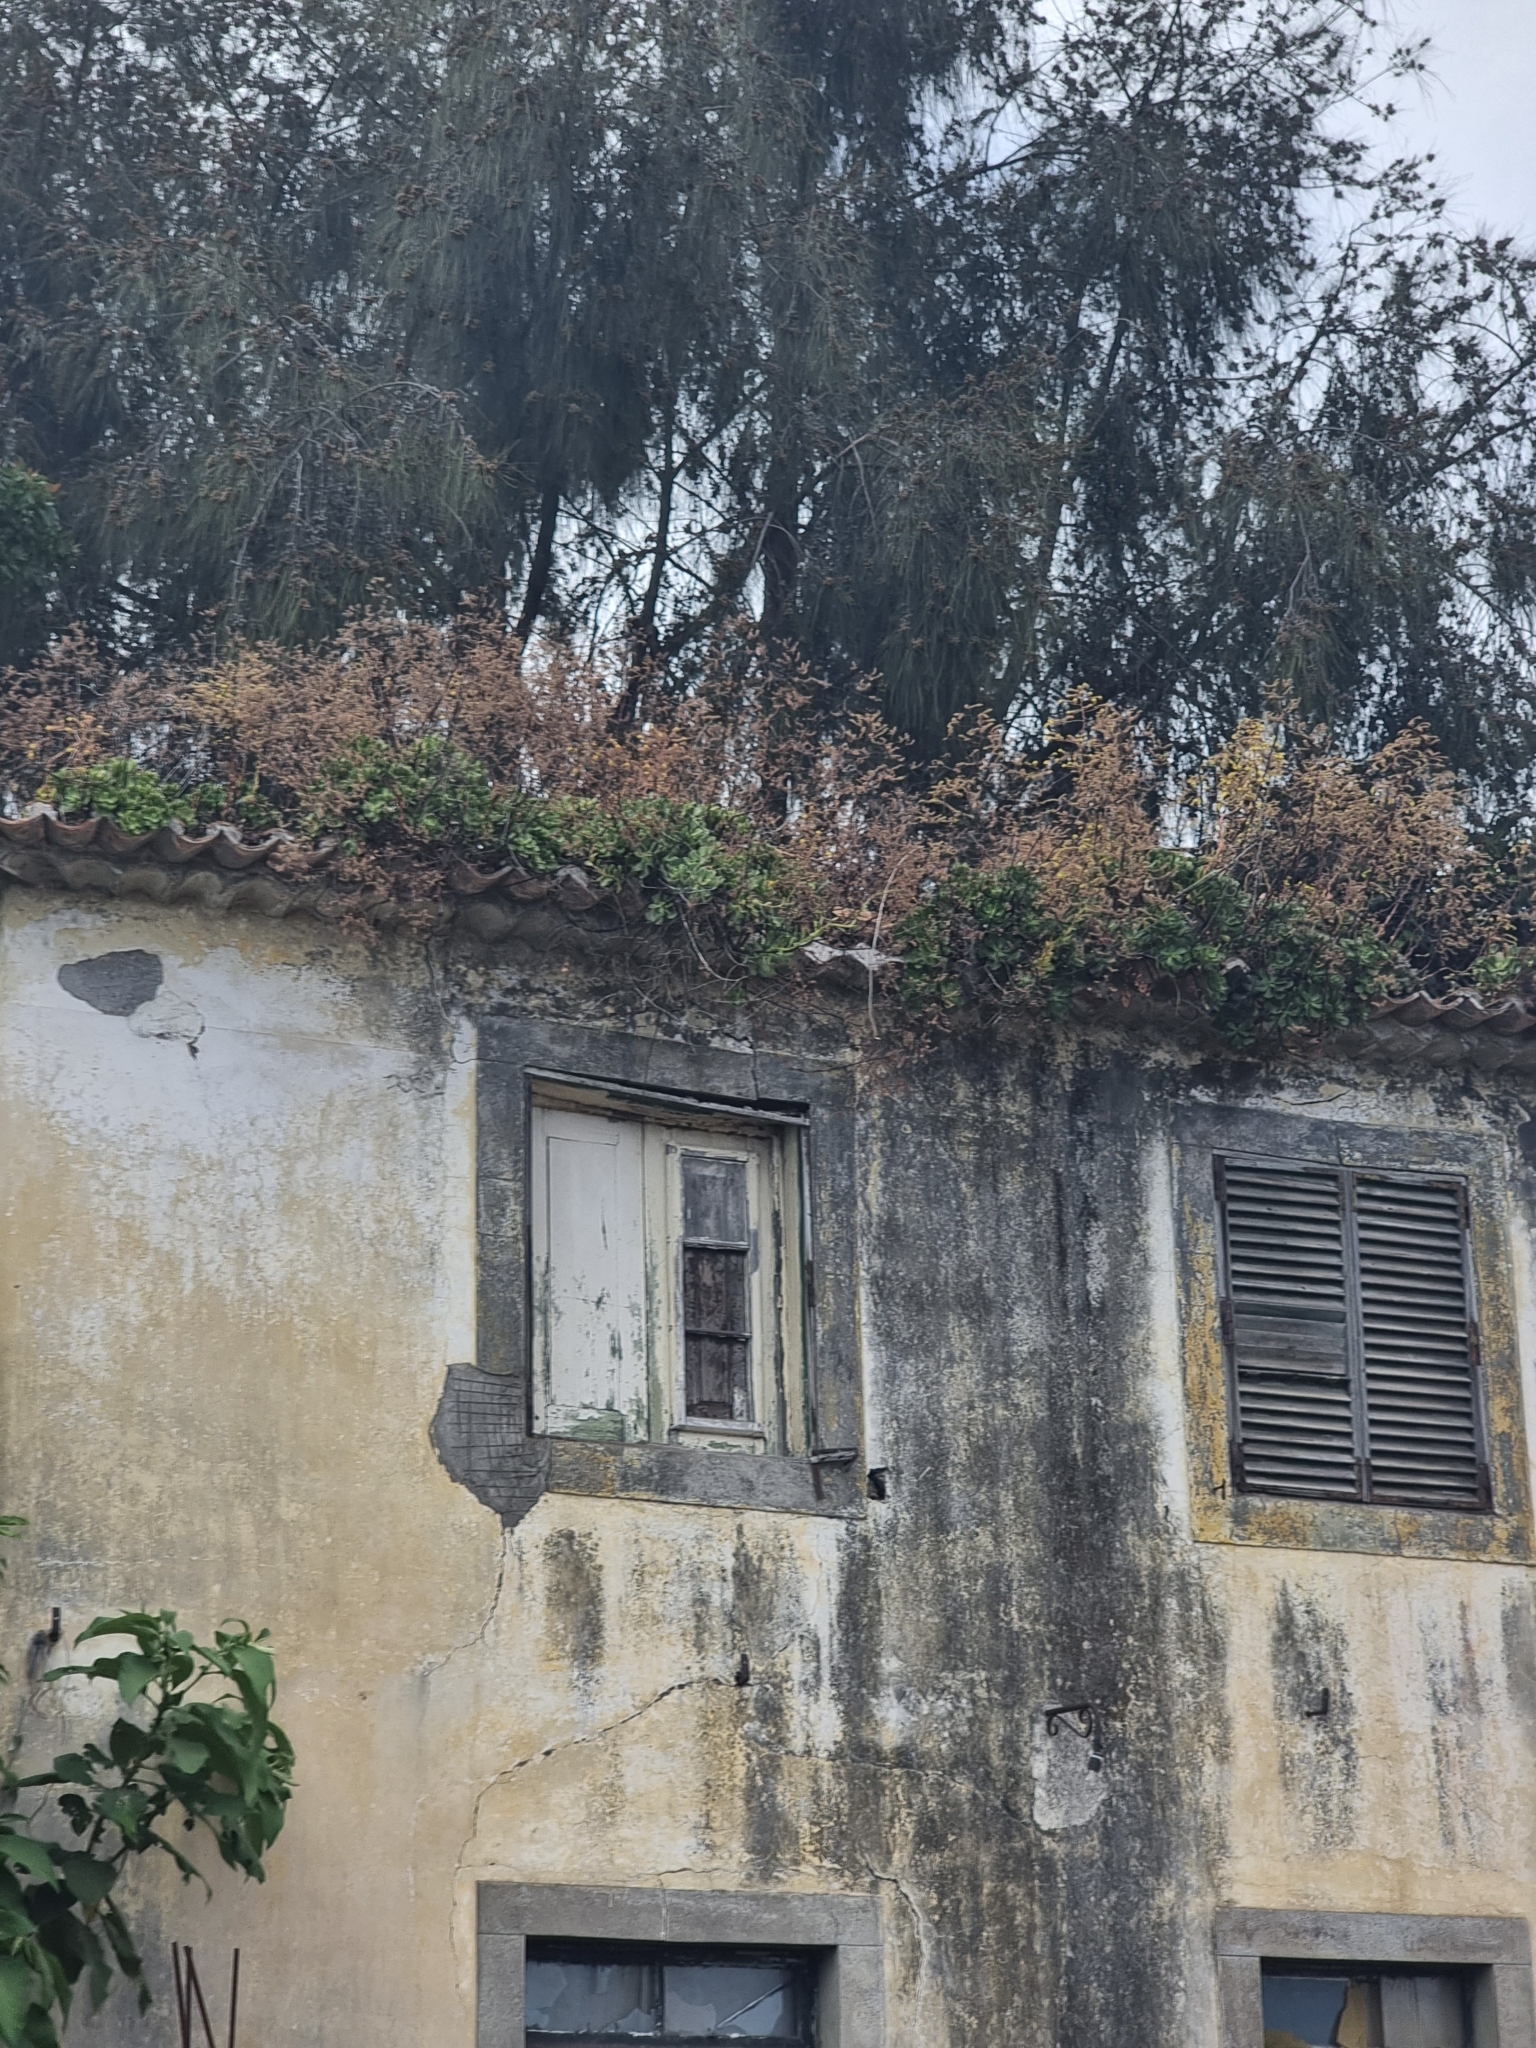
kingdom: Plantae
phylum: Tracheophyta
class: Magnoliopsida
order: Saxifragales
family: Crassulaceae
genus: Aeonium
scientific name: Aeonium glutinosum
